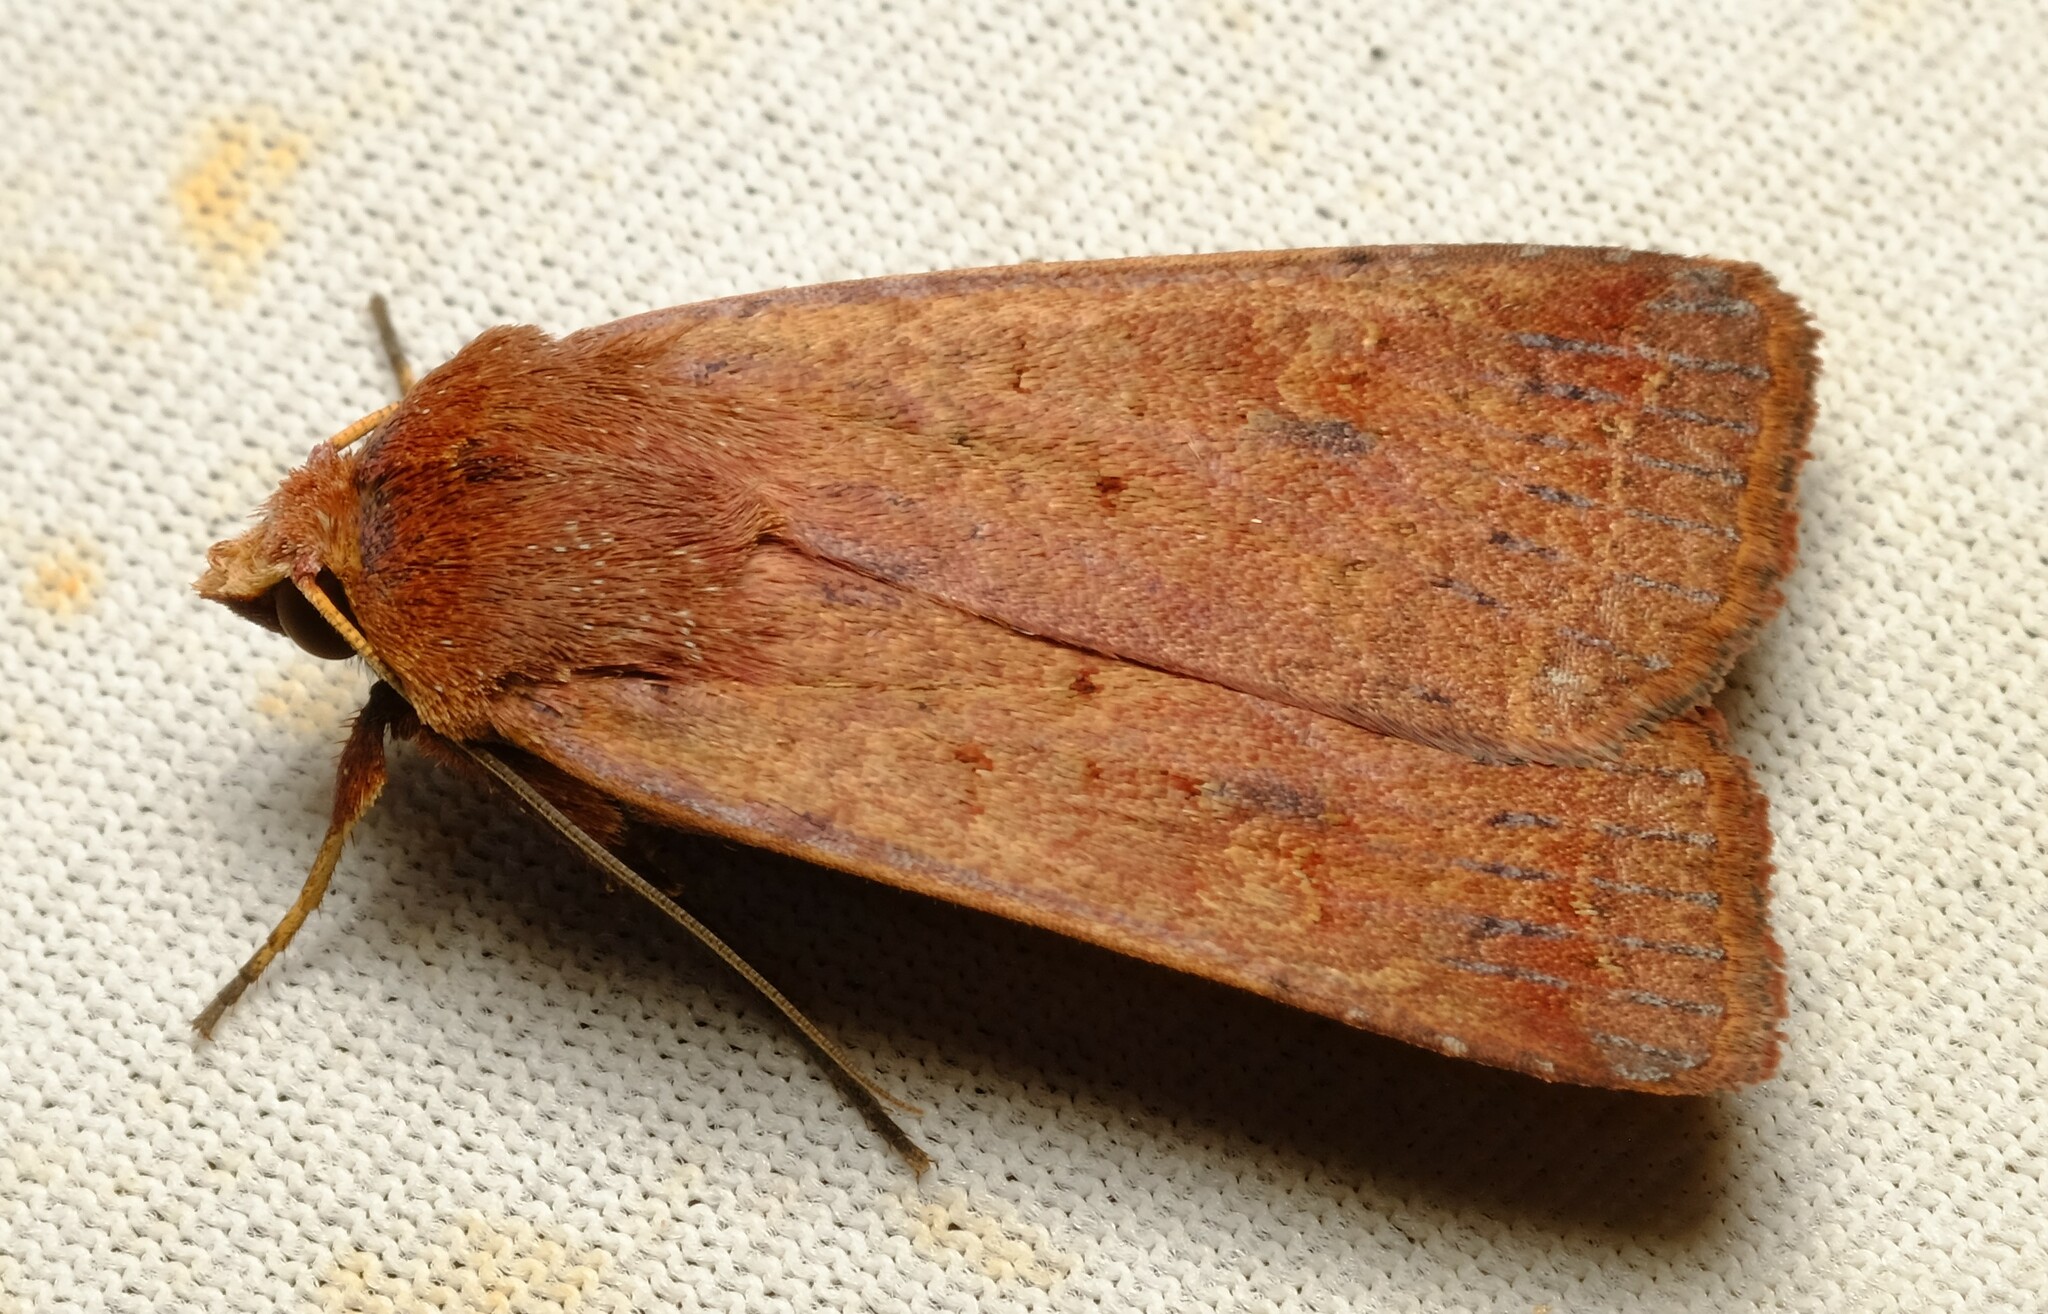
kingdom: Animalia
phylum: Arthropoda
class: Insecta
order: Lepidoptera
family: Noctuidae
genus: Diarsia
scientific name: Diarsia intermixta
